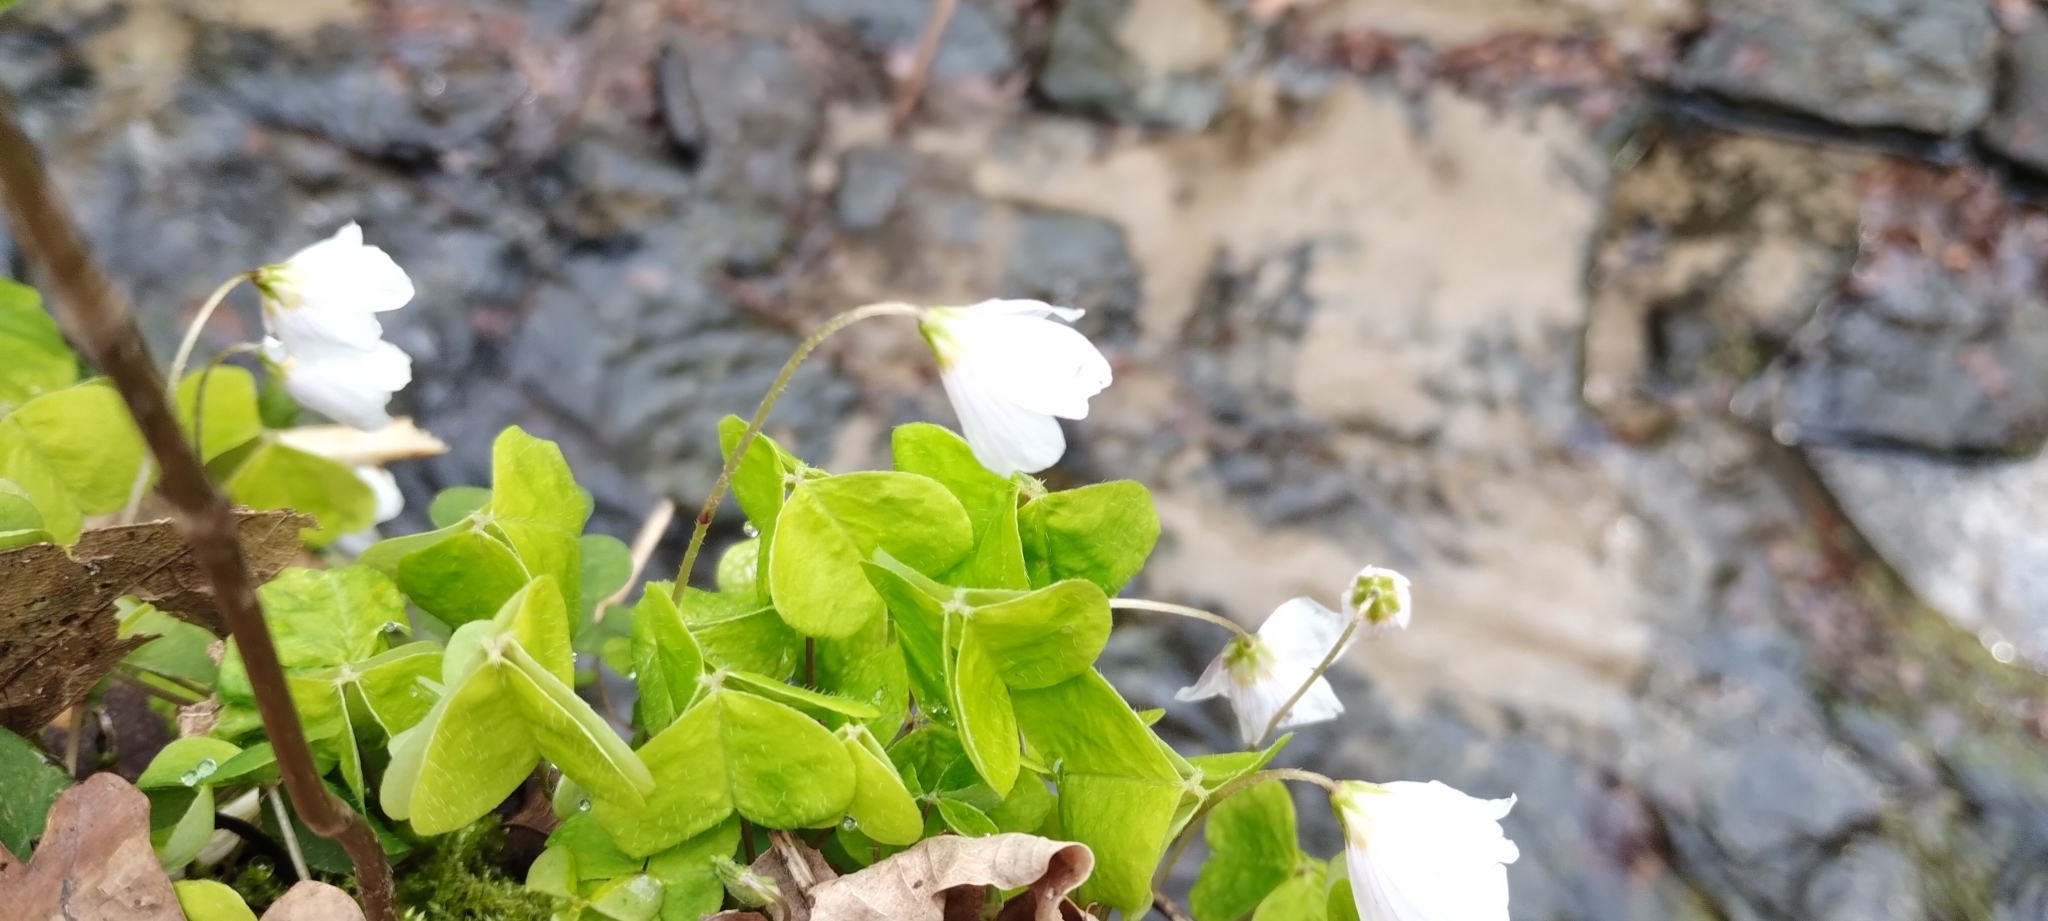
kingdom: Plantae
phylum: Tracheophyta
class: Magnoliopsida
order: Oxalidales
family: Oxalidaceae
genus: Oxalis
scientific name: Oxalis acetosella
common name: Wood-sorrel
